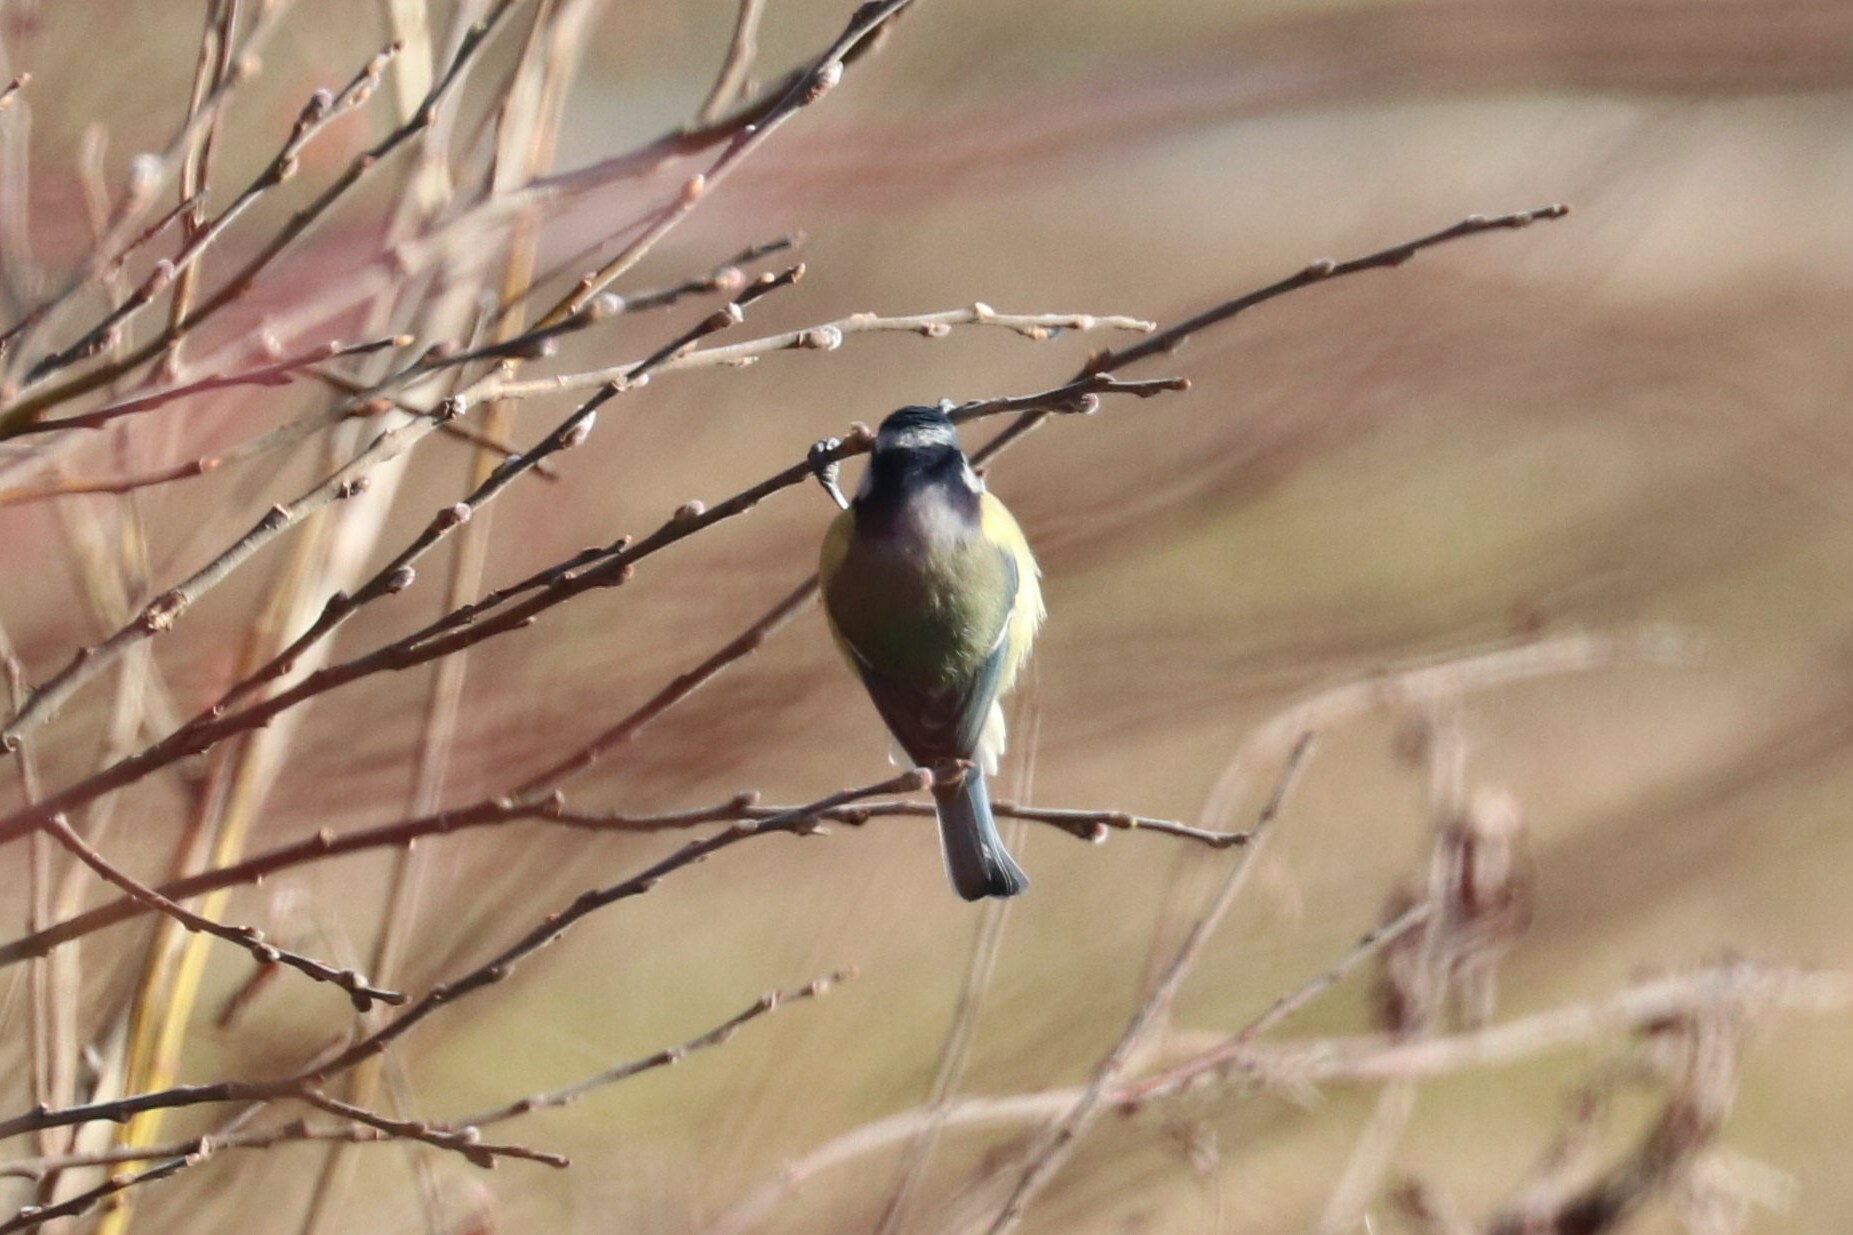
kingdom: Animalia
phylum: Chordata
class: Aves
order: Passeriformes
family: Paridae
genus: Cyanistes
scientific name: Cyanistes caeruleus
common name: Eurasian blue tit
